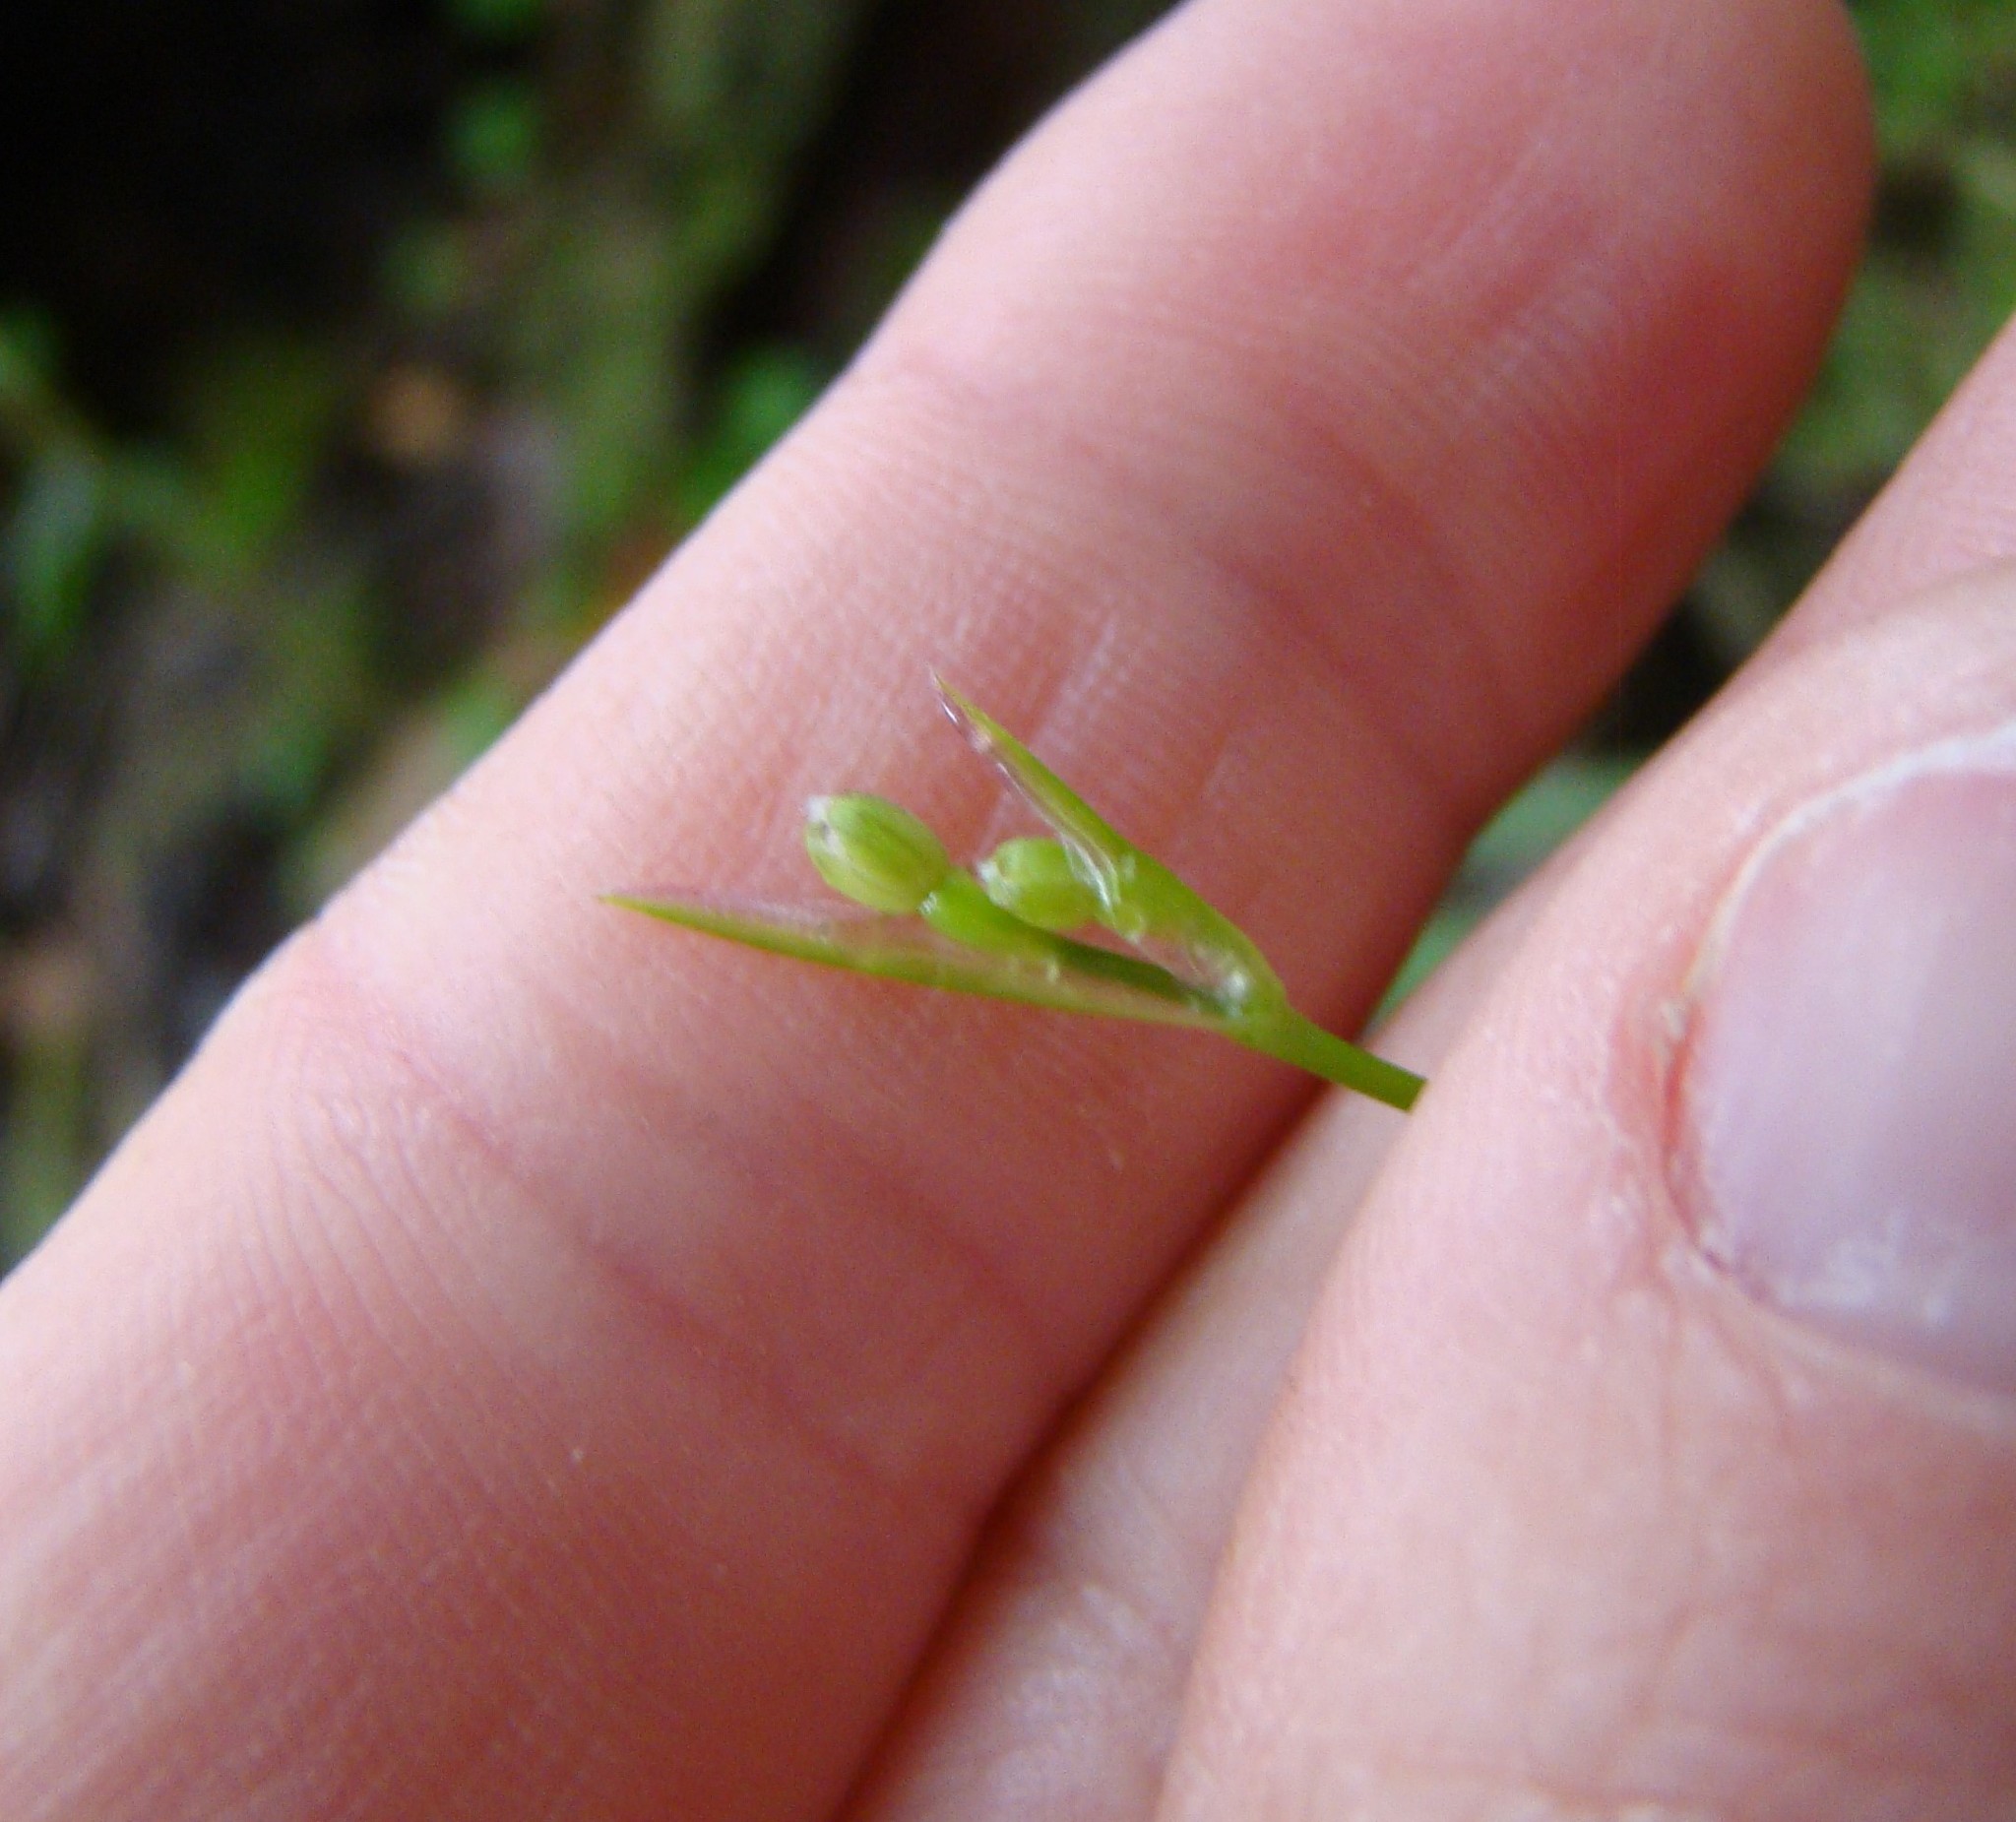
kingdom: Plantae
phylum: Tracheophyta
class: Liliopsida
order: Asparagales
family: Asphodelaceae
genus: Dianella
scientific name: Dianella nigra
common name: New zealand-blueberry
